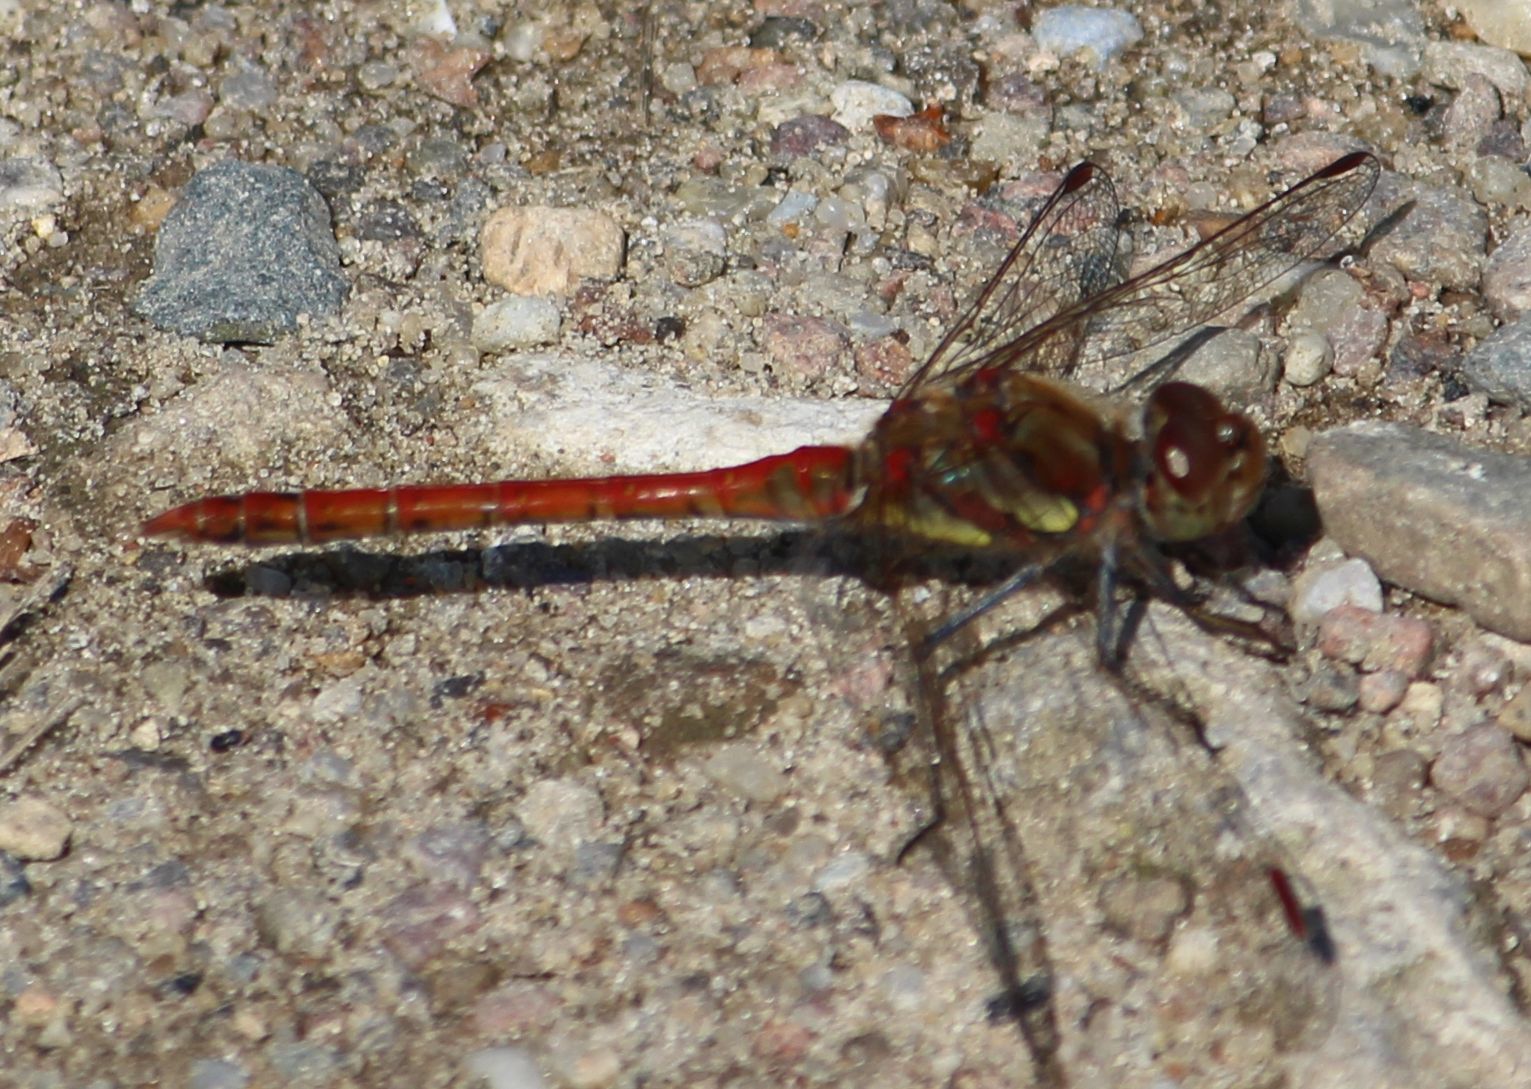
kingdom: Animalia
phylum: Arthropoda
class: Insecta
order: Odonata
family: Libellulidae
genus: Sympetrum
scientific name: Sympetrum striolatum
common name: Common darter
